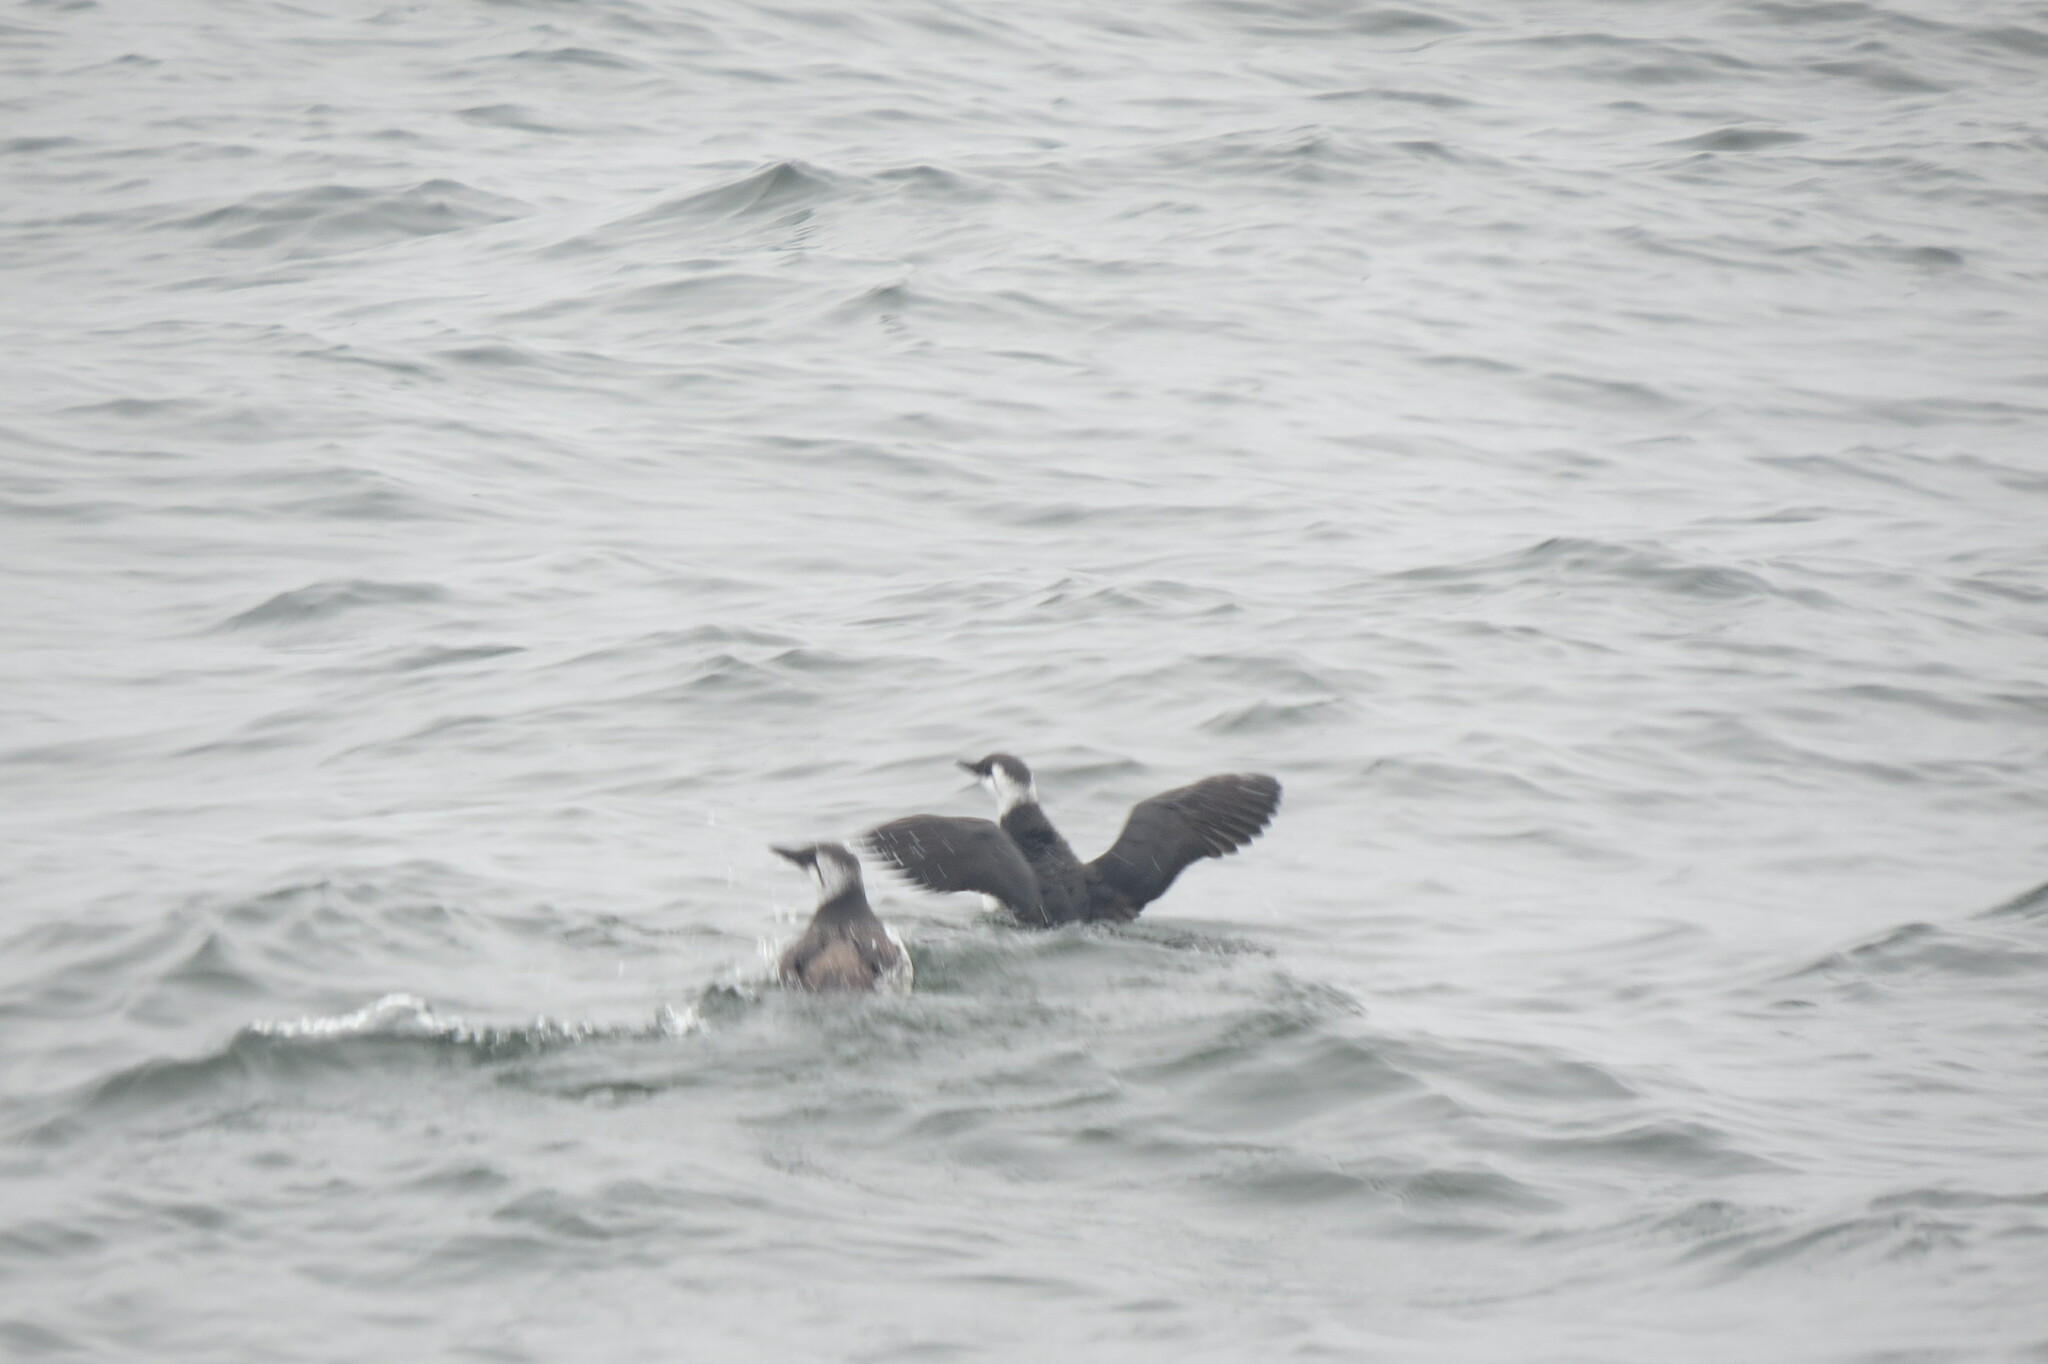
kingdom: Animalia
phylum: Chordata
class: Aves
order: Charadriiformes
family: Alcidae
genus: Uria
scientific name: Uria aalge
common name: Common murre
